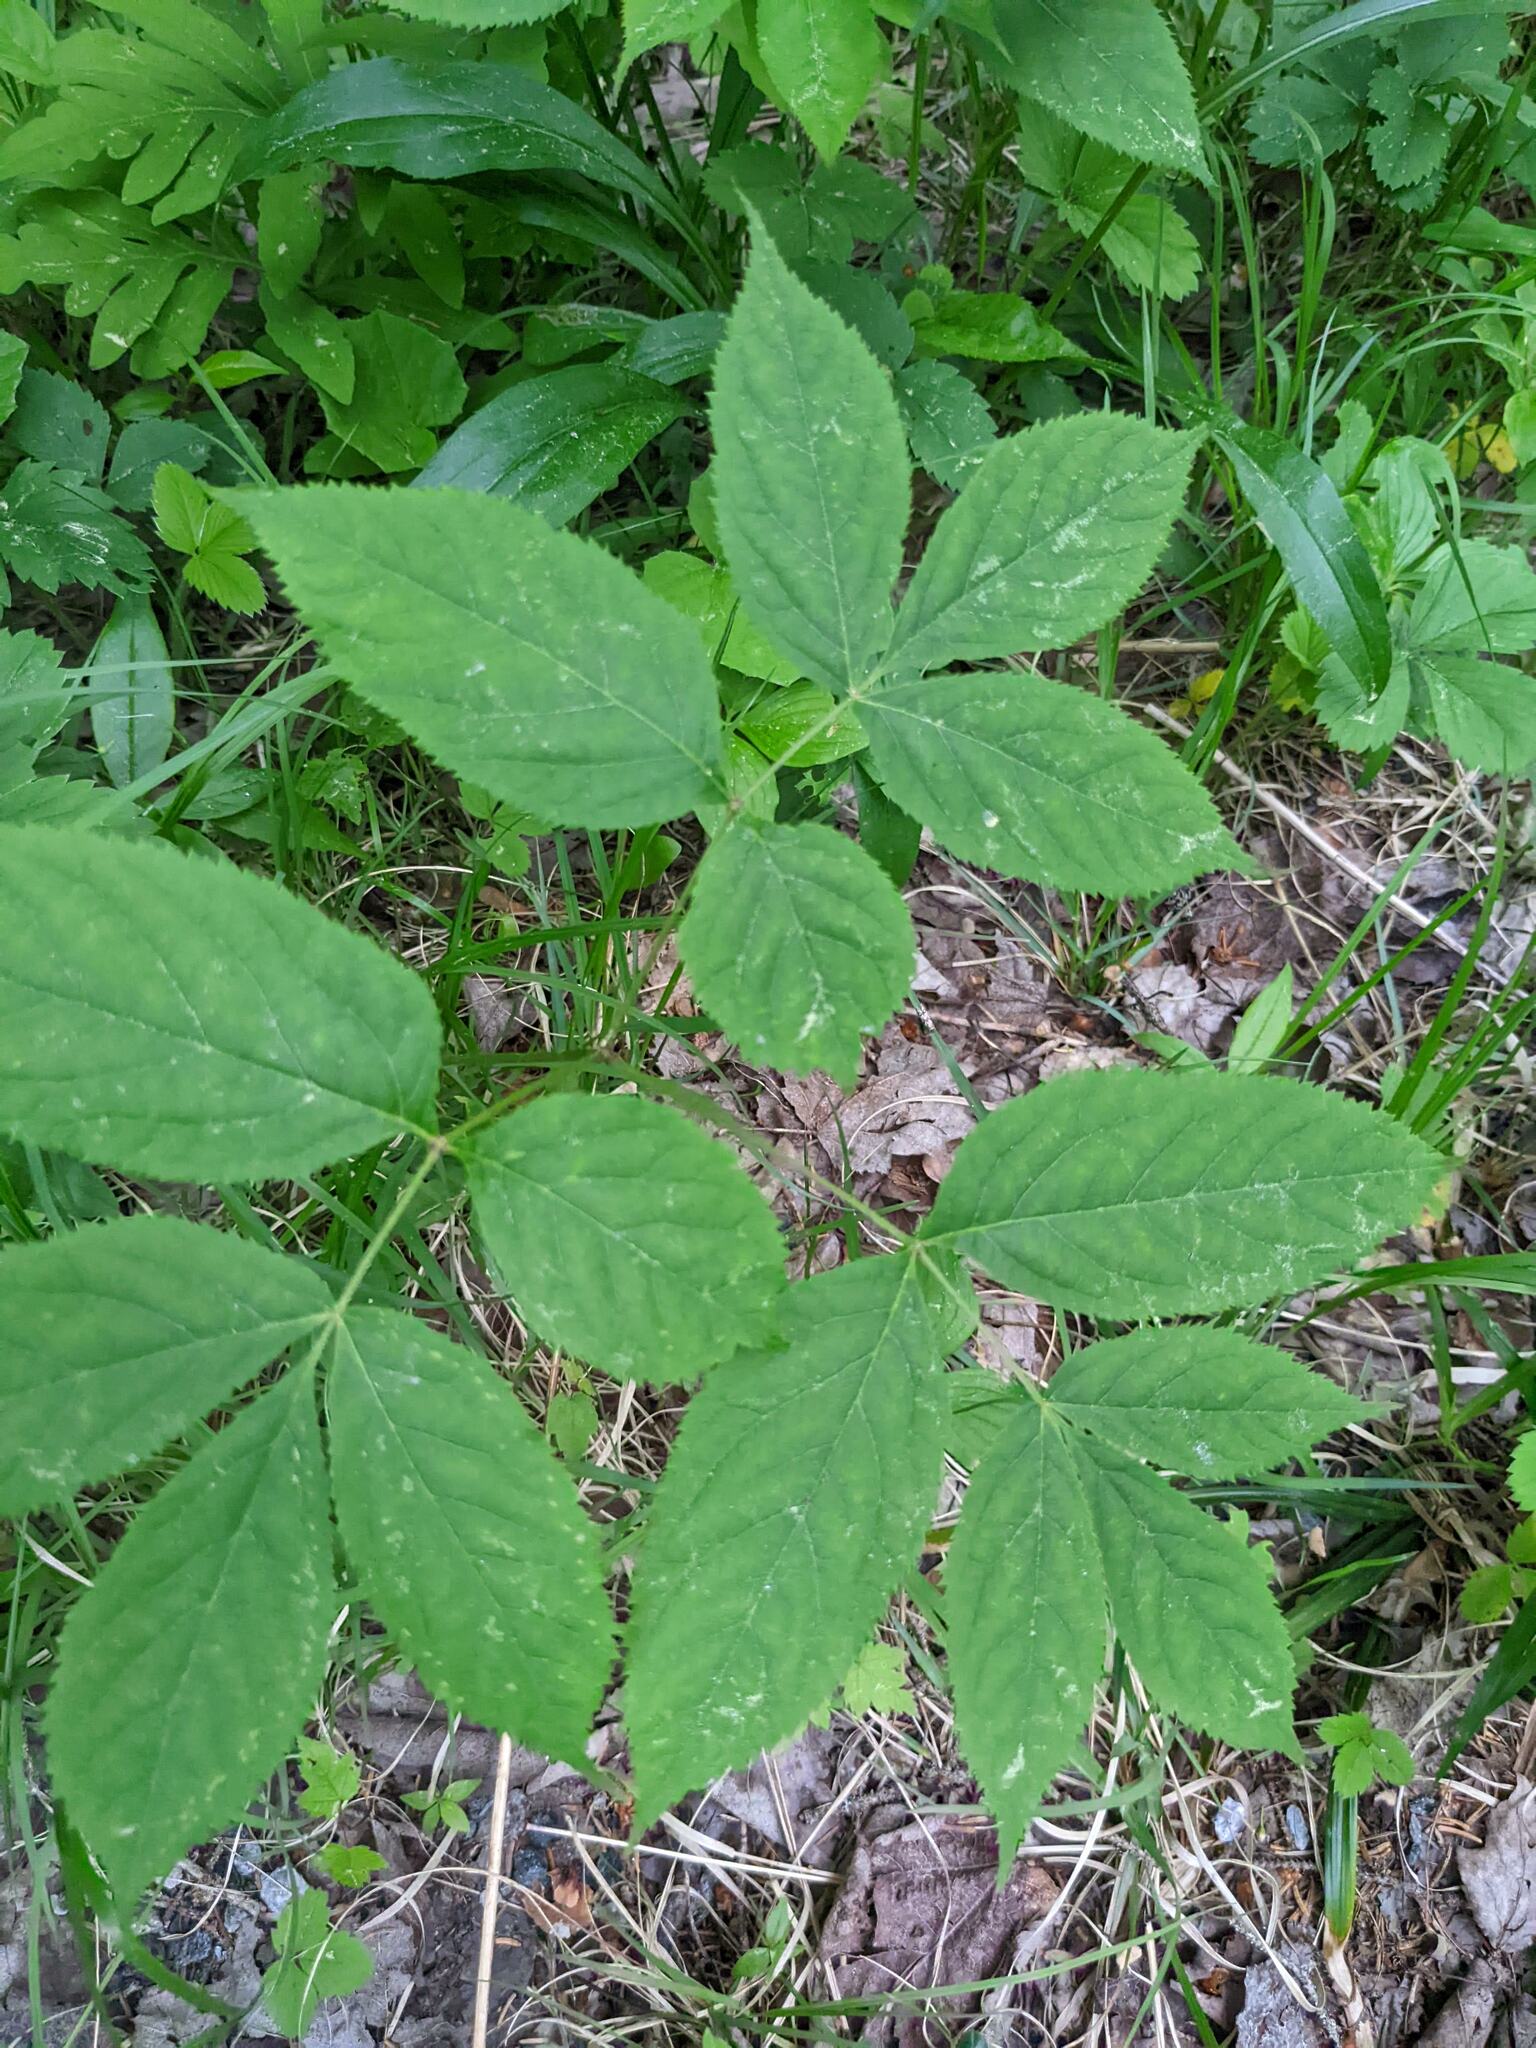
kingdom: Plantae
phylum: Tracheophyta
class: Magnoliopsida
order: Apiales
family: Araliaceae
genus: Aralia
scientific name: Aralia nudicaulis
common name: Wild sarsaparilla
